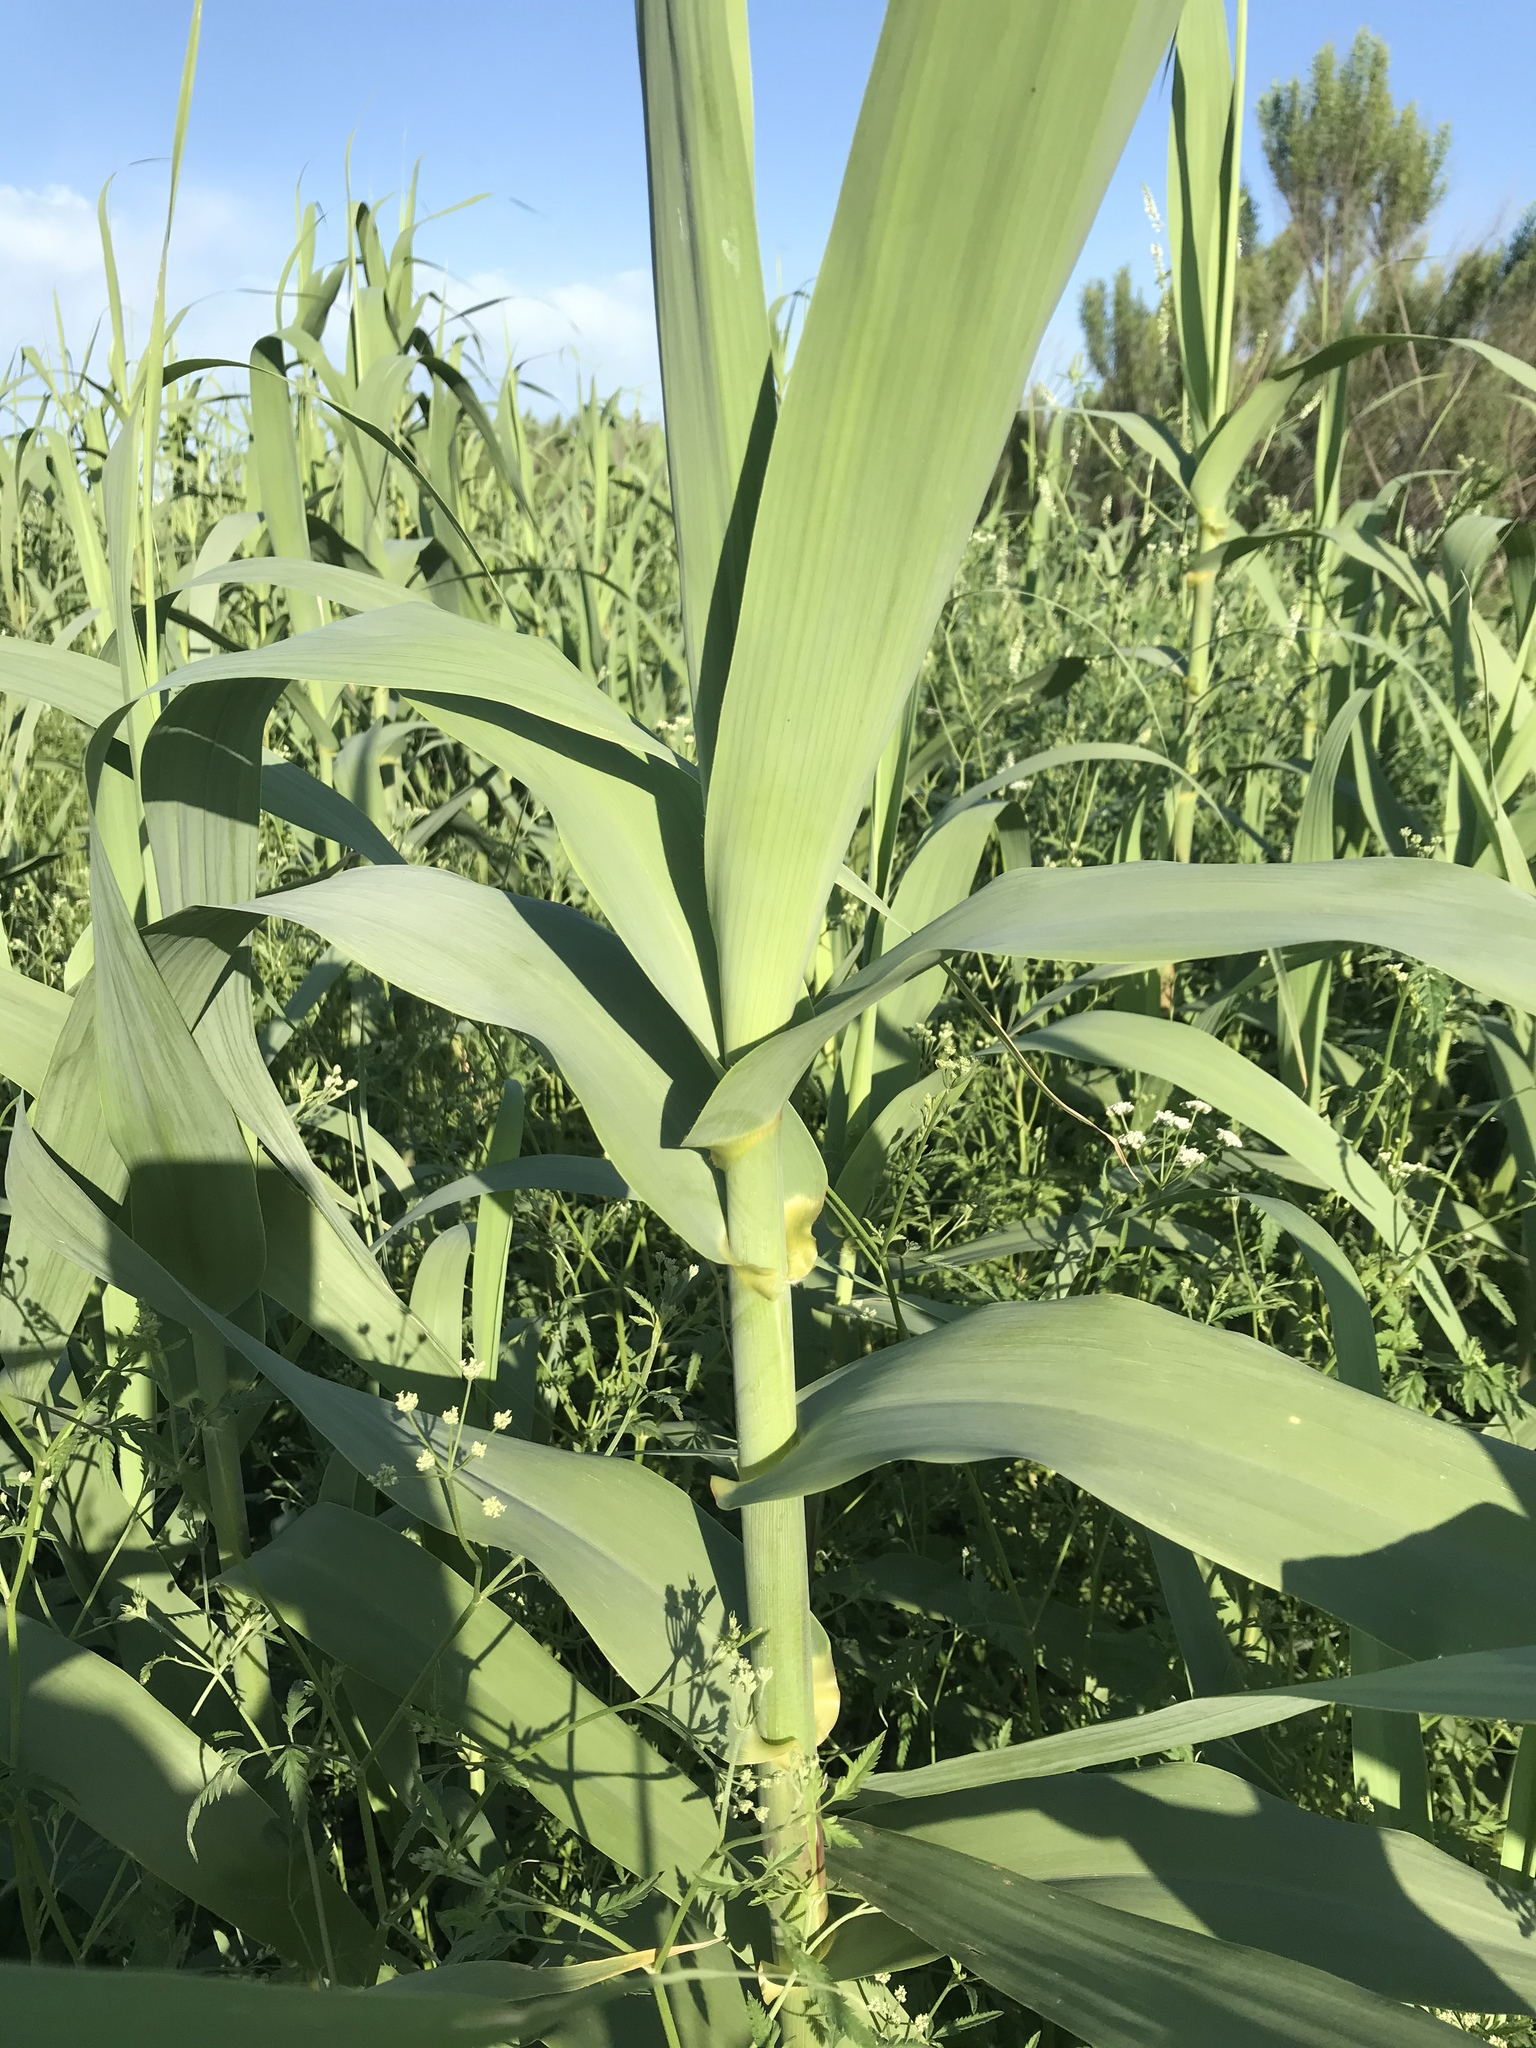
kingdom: Plantae
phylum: Tracheophyta
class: Liliopsida
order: Poales
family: Poaceae
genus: Arundo
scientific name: Arundo donax
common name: Giant reed
